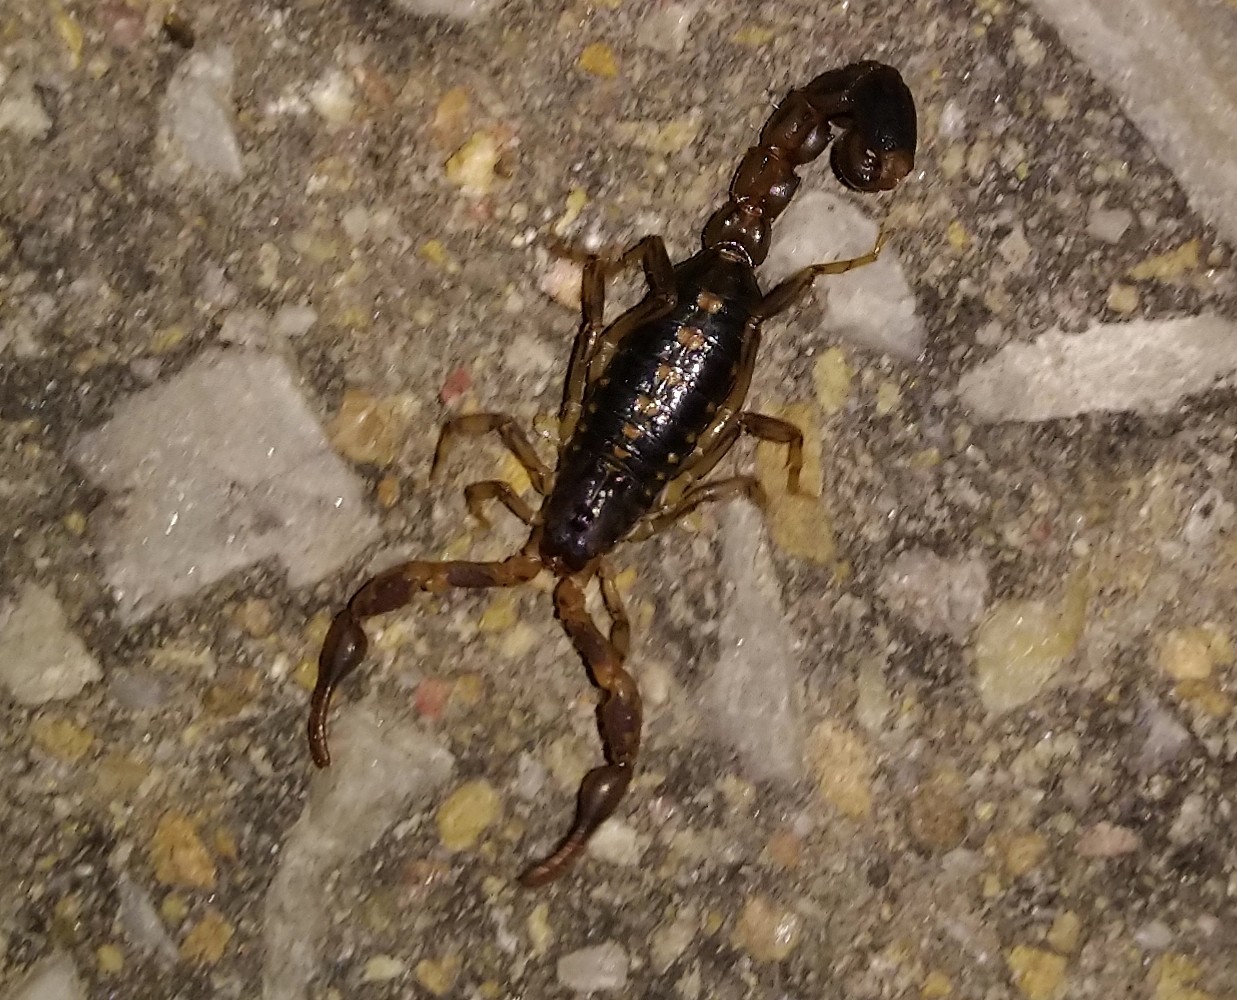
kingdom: Animalia
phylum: Arthropoda
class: Arachnida
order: Scorpiones
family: Buthidae
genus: Uroplectes
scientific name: Uroplectes formosus
